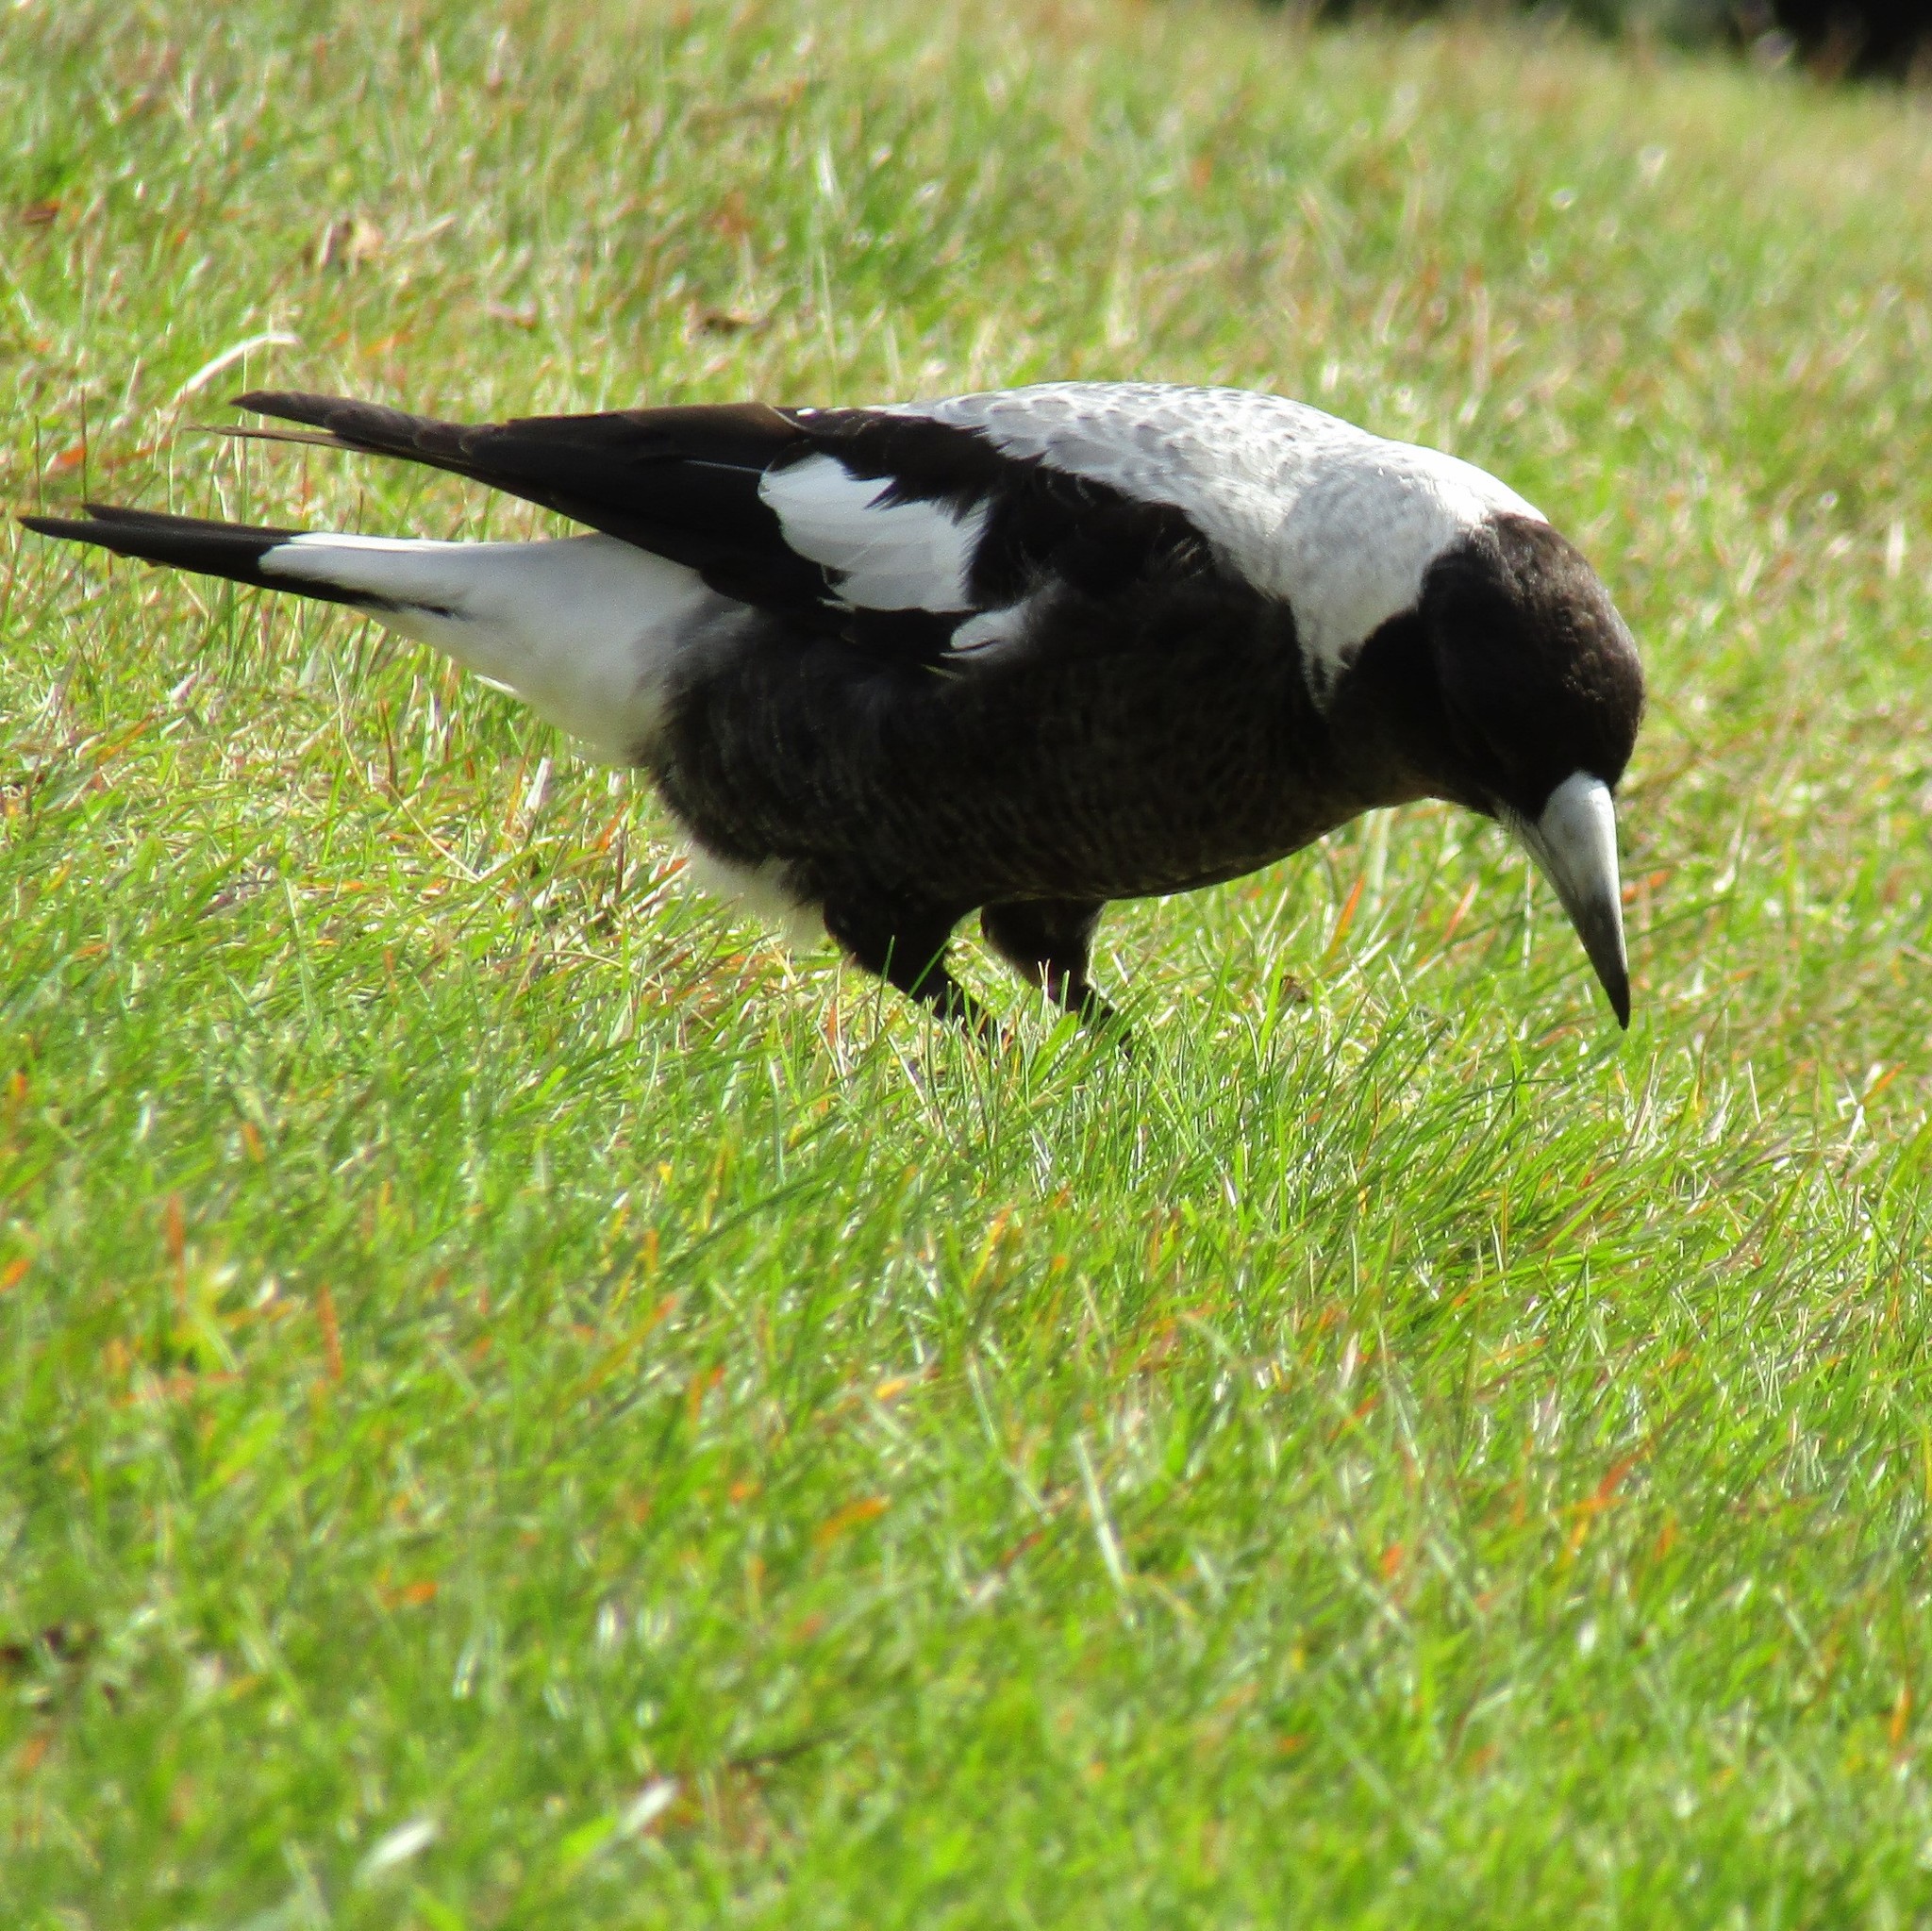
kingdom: Animalia
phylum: Chordata
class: Aves
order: Passeriformes
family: Cracticidae
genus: Gymnorhina
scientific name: Gymnorhina tibicen
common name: Australian magpie
